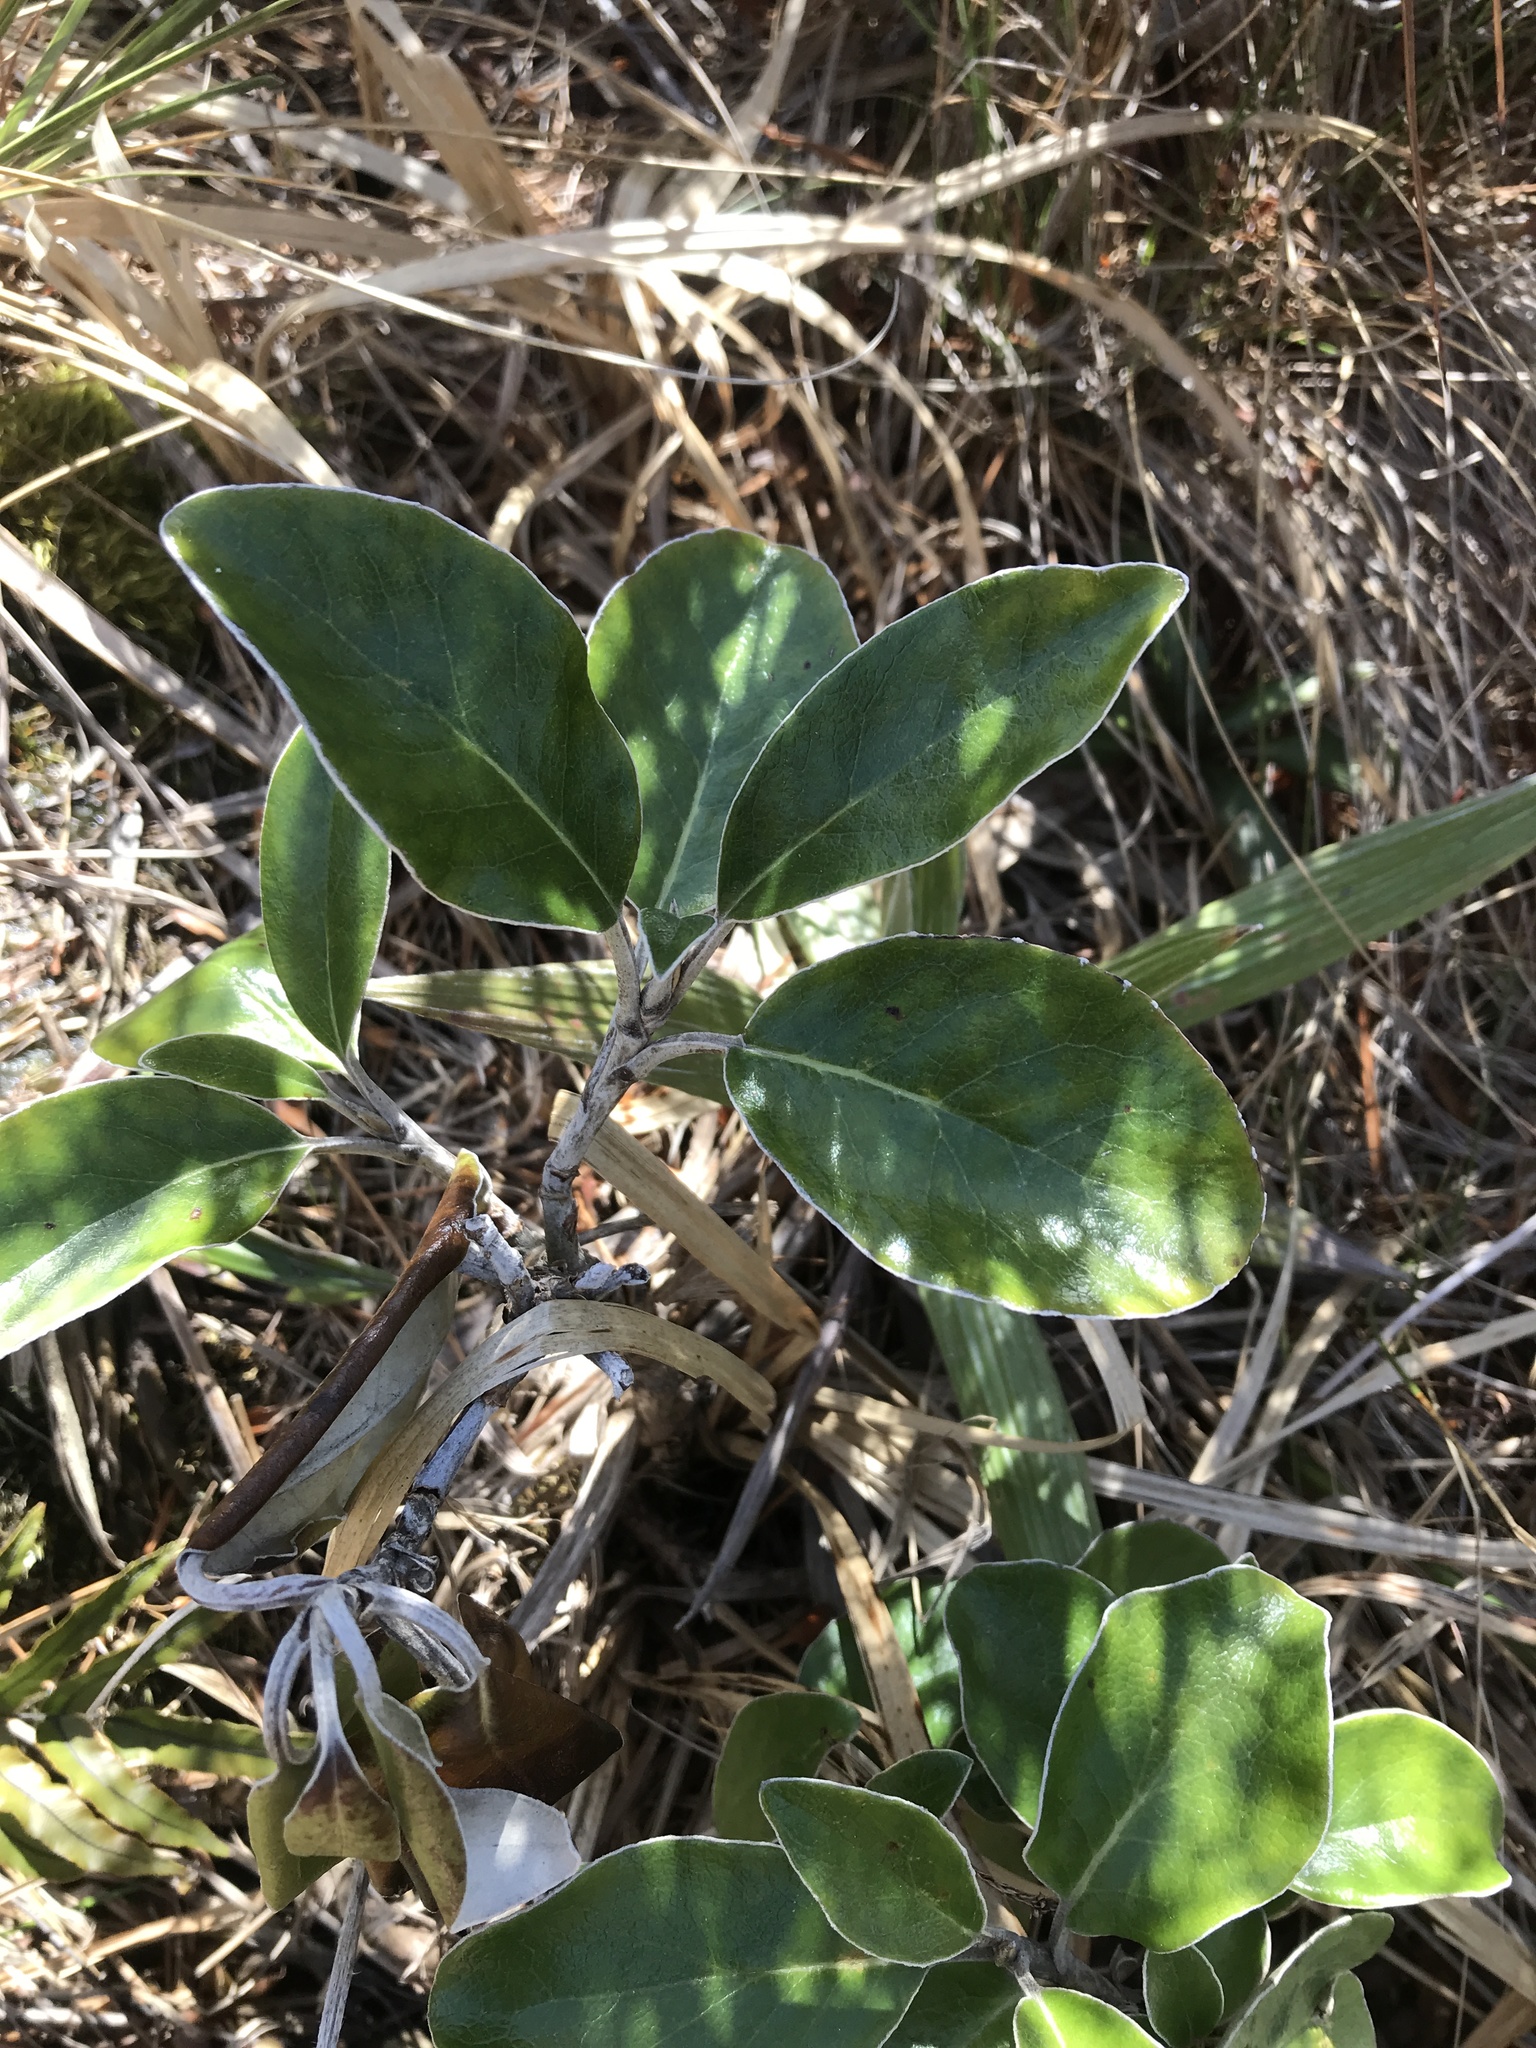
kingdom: Plantae
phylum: Tracheophyta
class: Magnoliopsida
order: Asterales
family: Asteraceae
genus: Brachyglottis
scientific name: Brachyglottis elaeagnifolia
